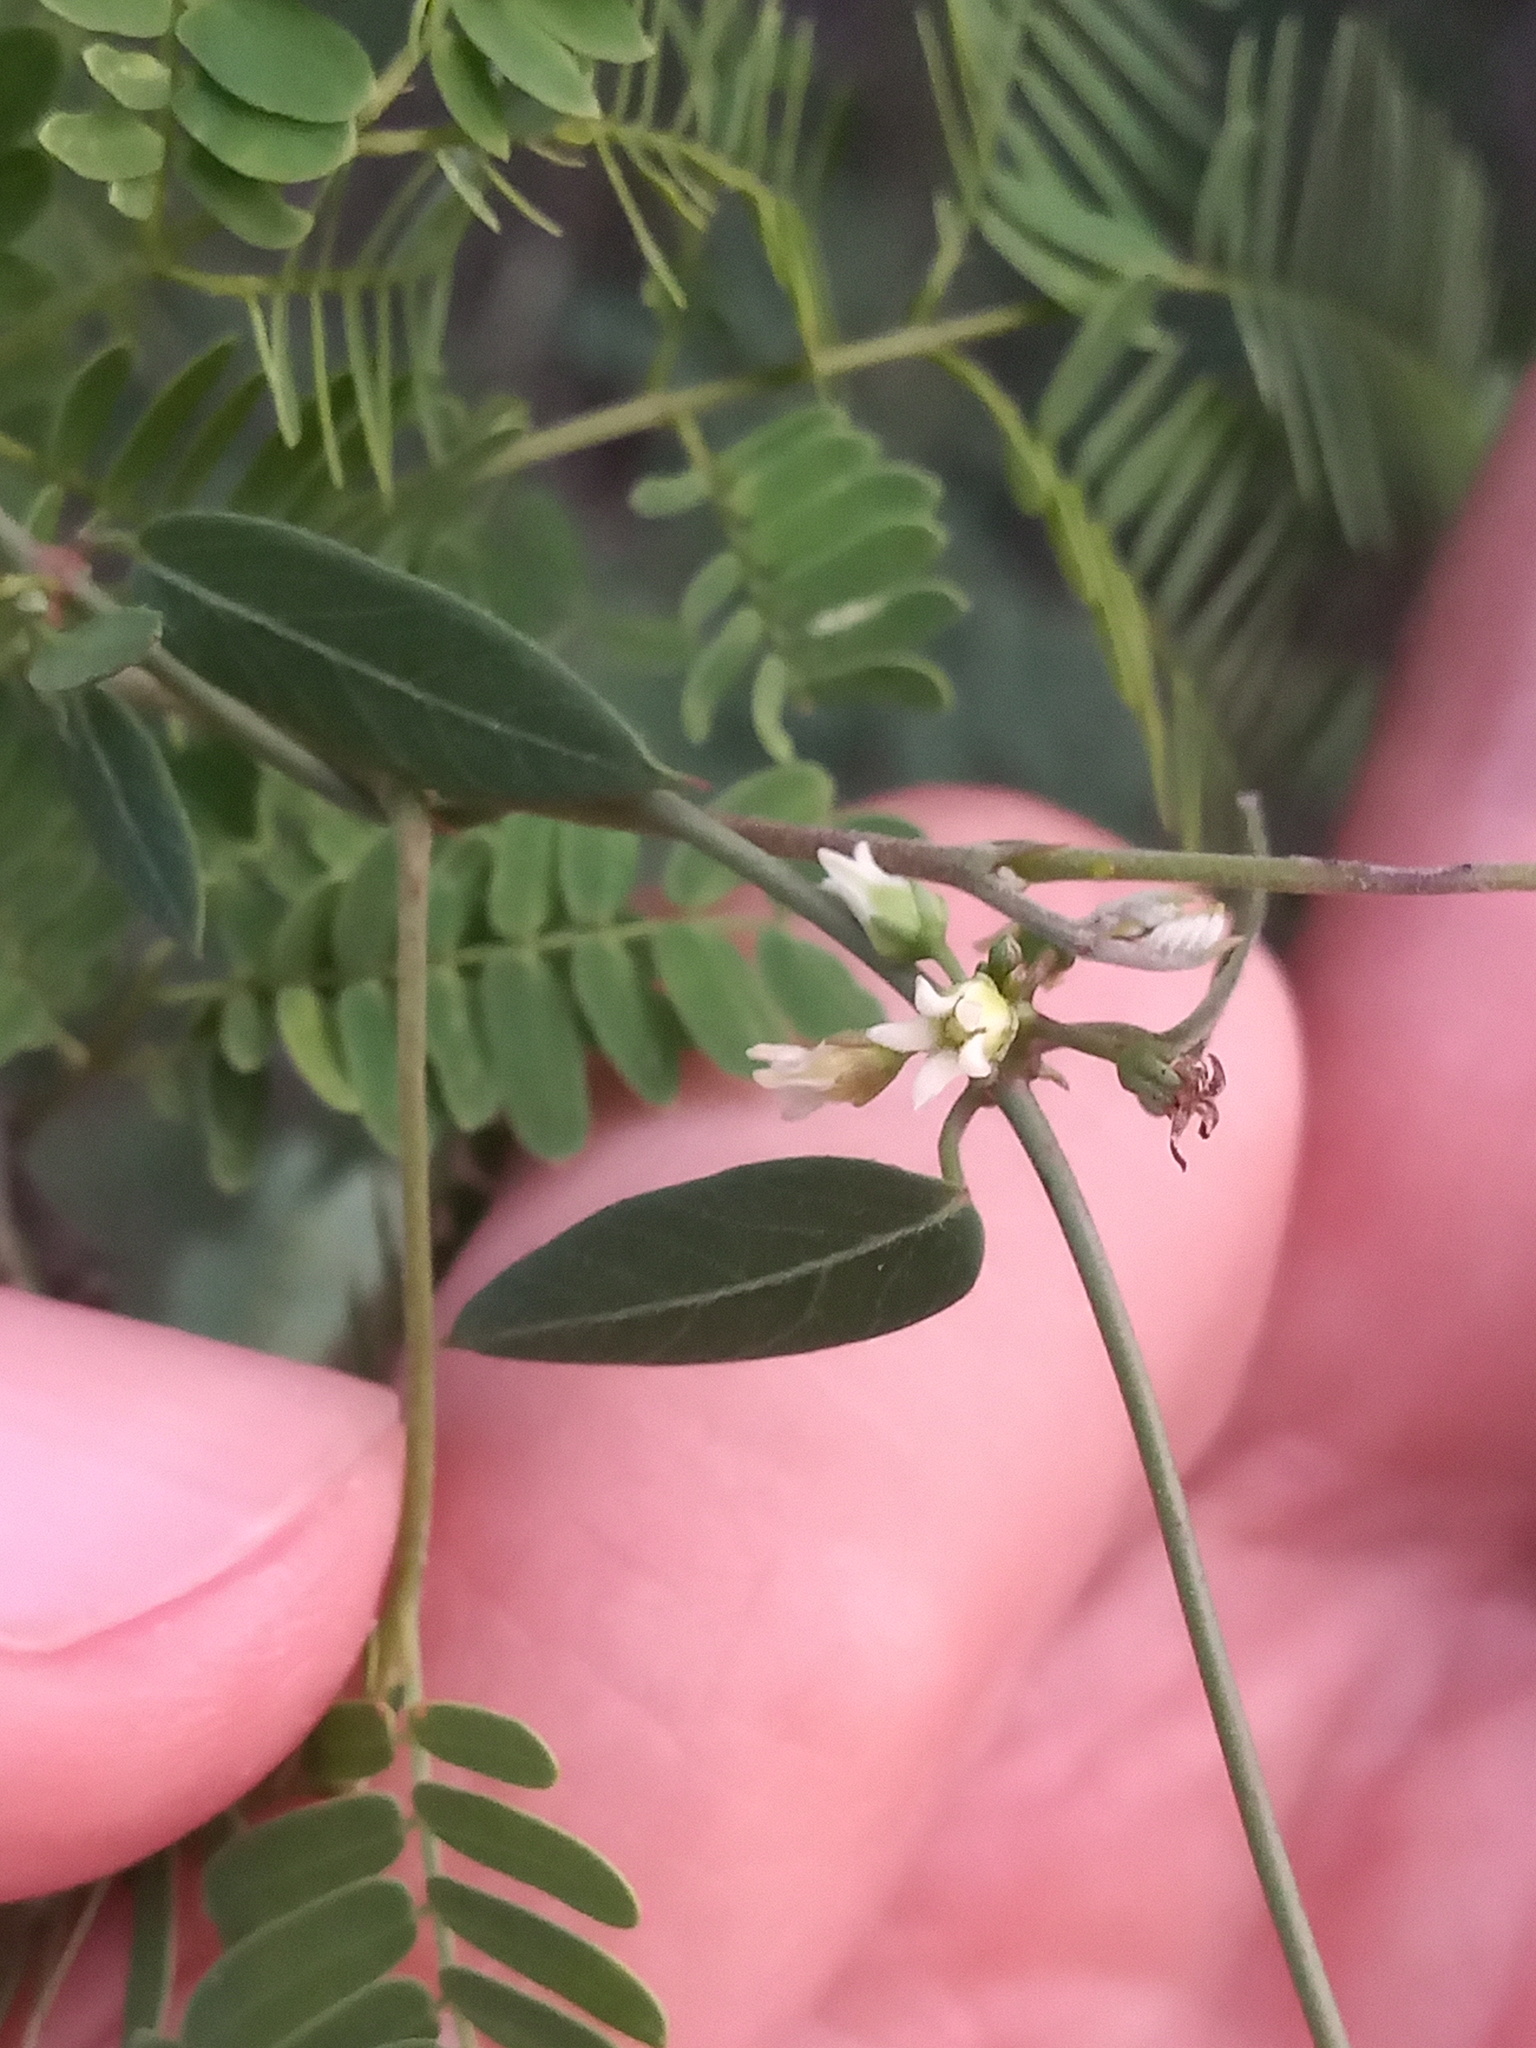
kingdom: Plantae
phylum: Tracheophyta
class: Magnoliopsida
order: Gentianales
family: Apocynaceae
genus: Metastelma
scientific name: Metastelma barbigerum
